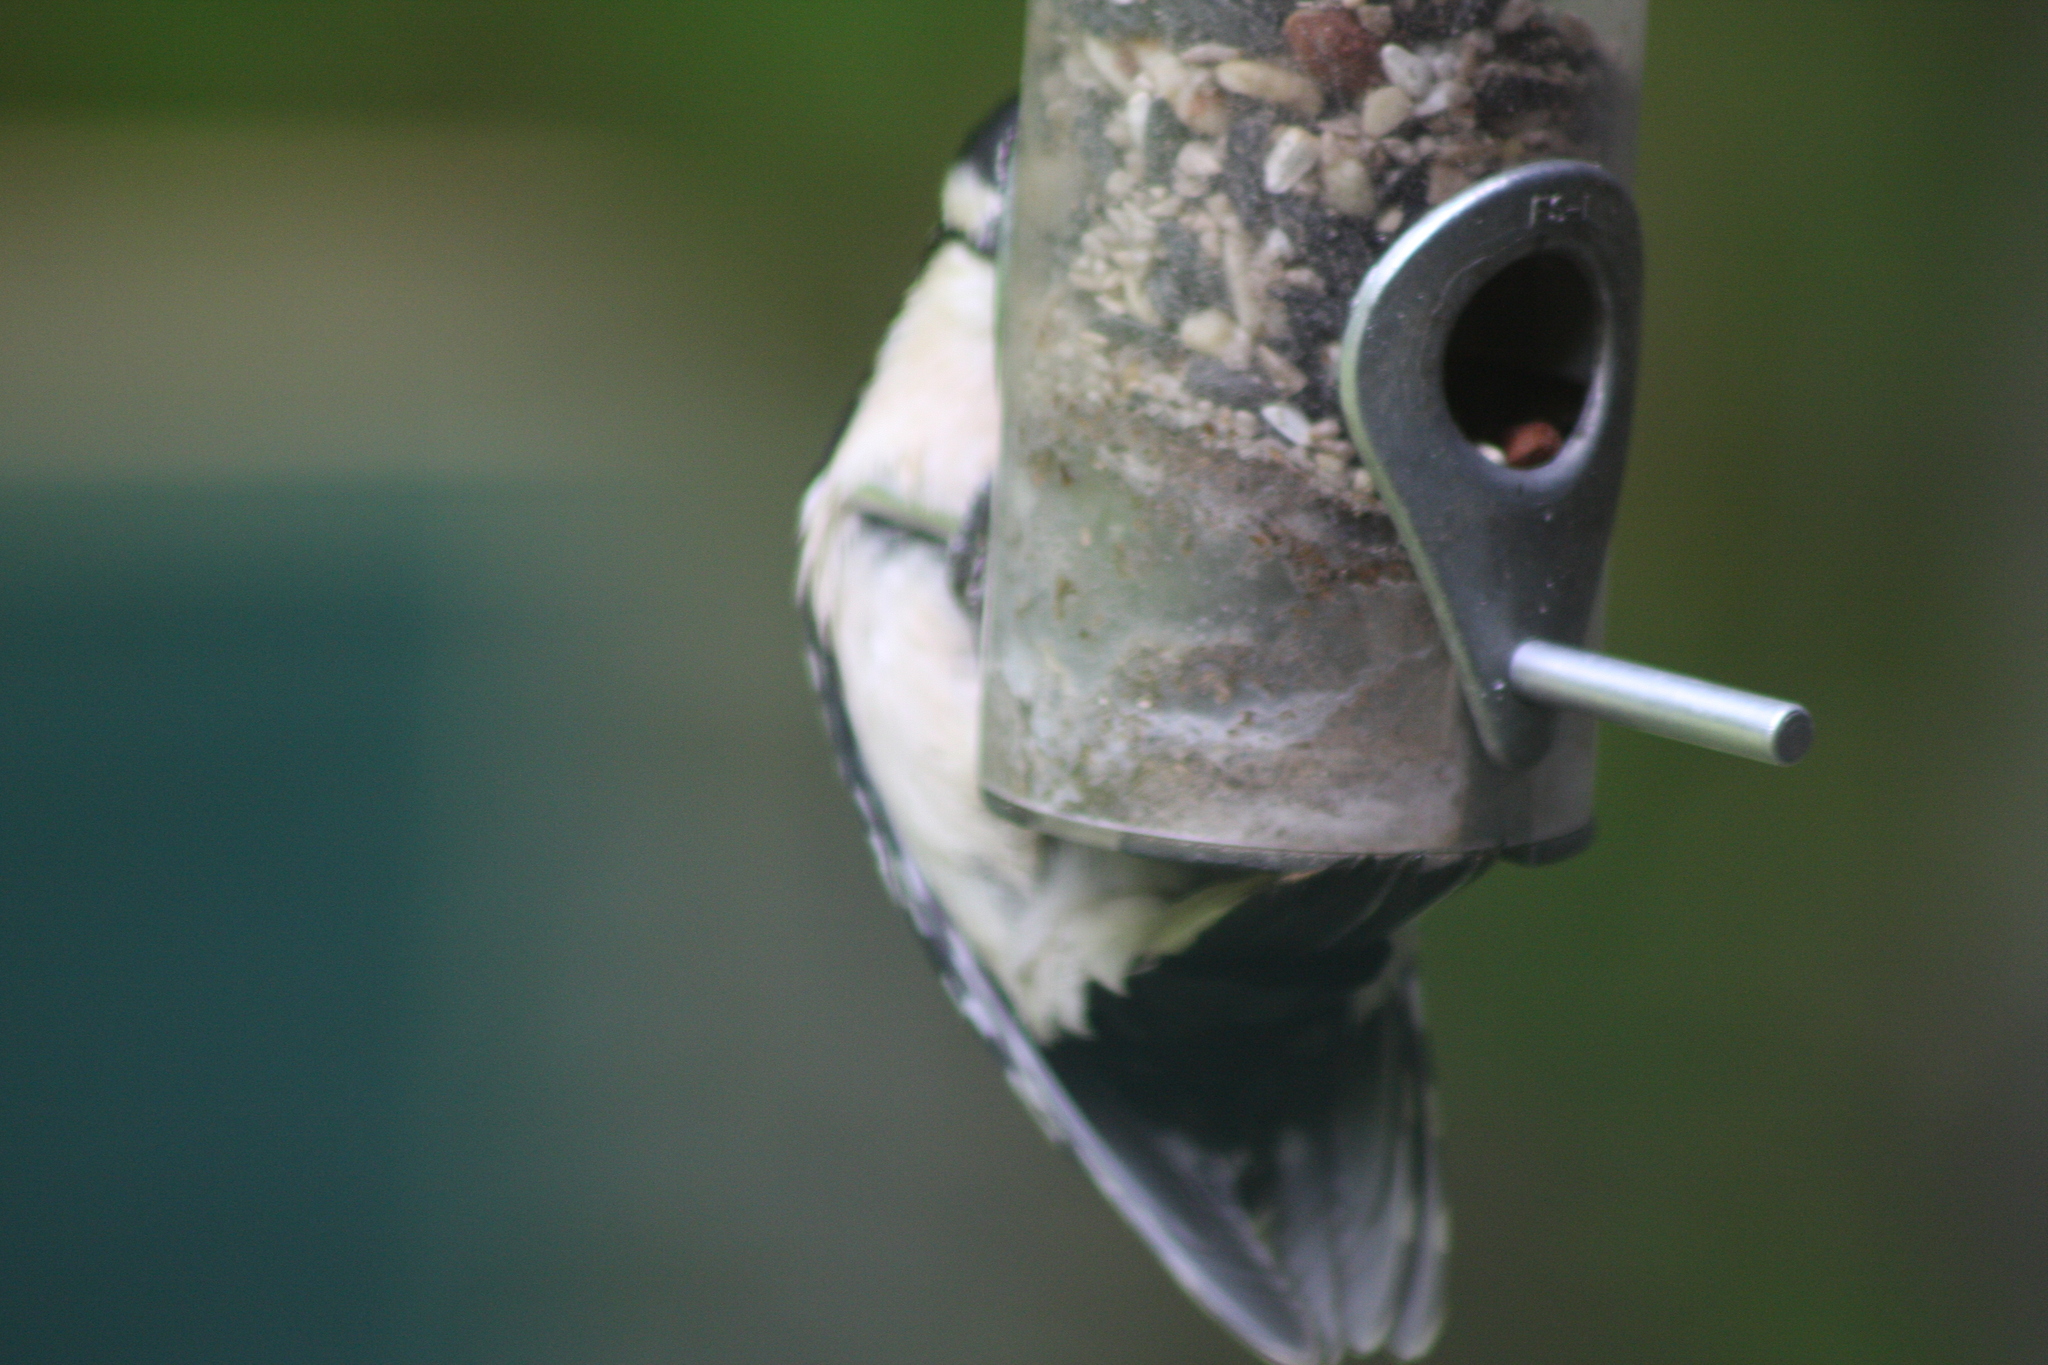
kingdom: Animalia
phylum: Chordata
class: Aves
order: Piciformes
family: Picidae
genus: Dryobates
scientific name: Dryobates pubescens
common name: Downy woodpecker
